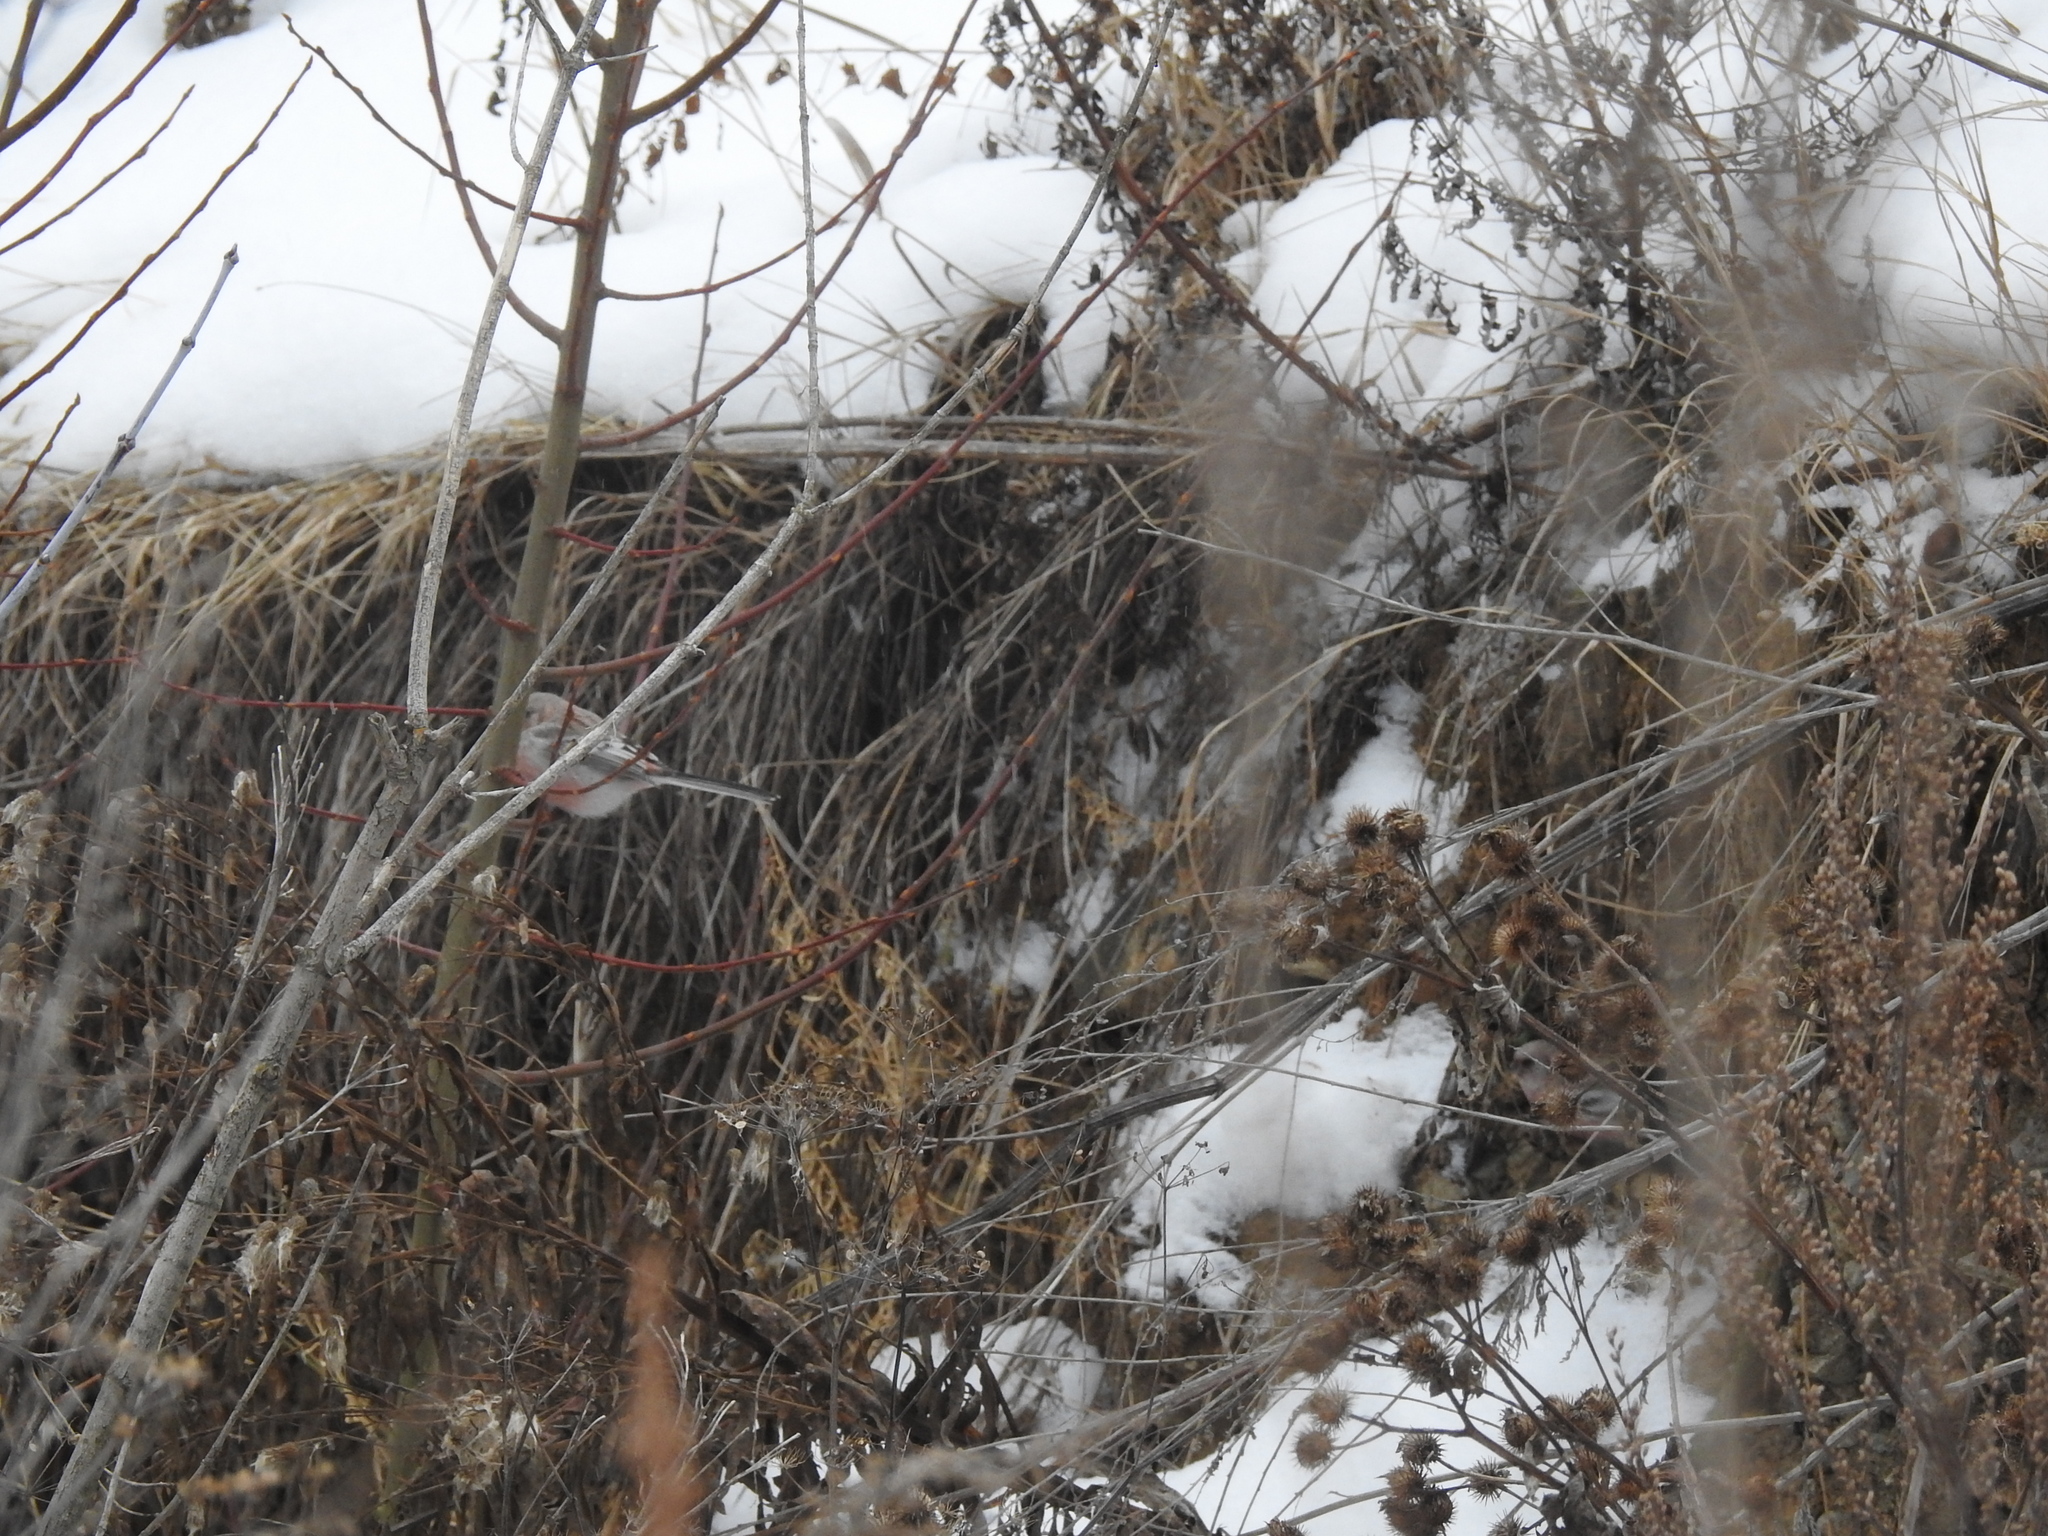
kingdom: Animalia
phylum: Chordata
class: Aves
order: Passeriformes
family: Fringillidae
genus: Carpodacus
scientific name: Carpodacus sibiricus
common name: Long-tailed rosefinch
